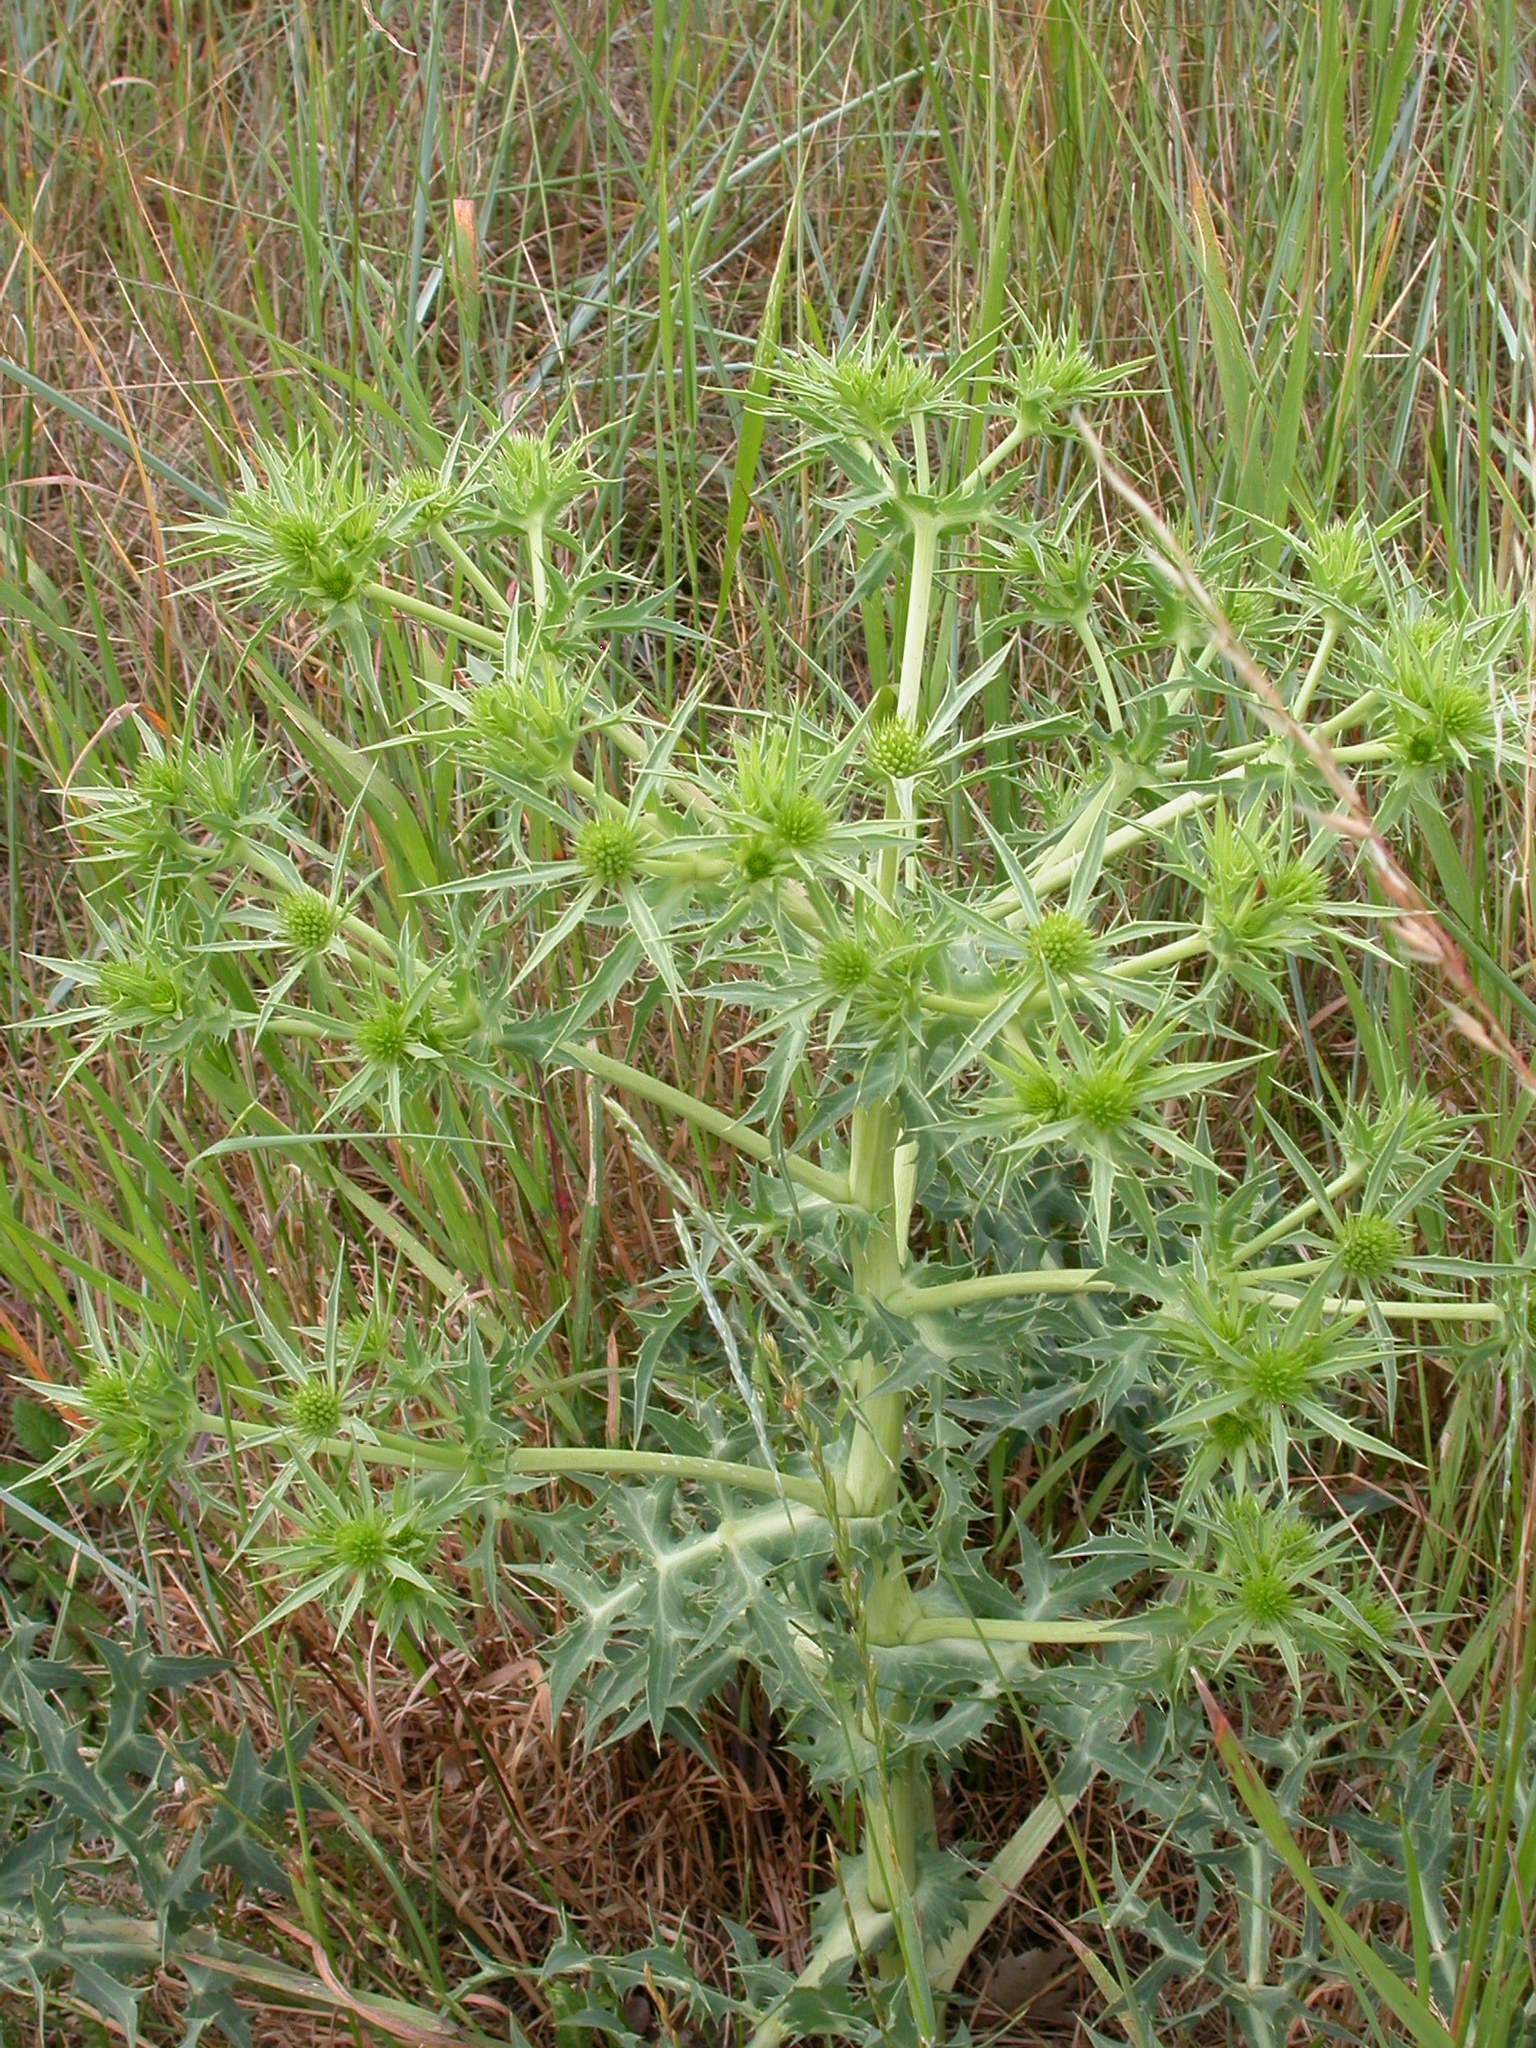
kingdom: Plantae
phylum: Tracheophyta
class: Magnoliopsida
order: Apiales
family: Apiaceae
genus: Eryngium
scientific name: Eryngium campestre
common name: Field eryngo
